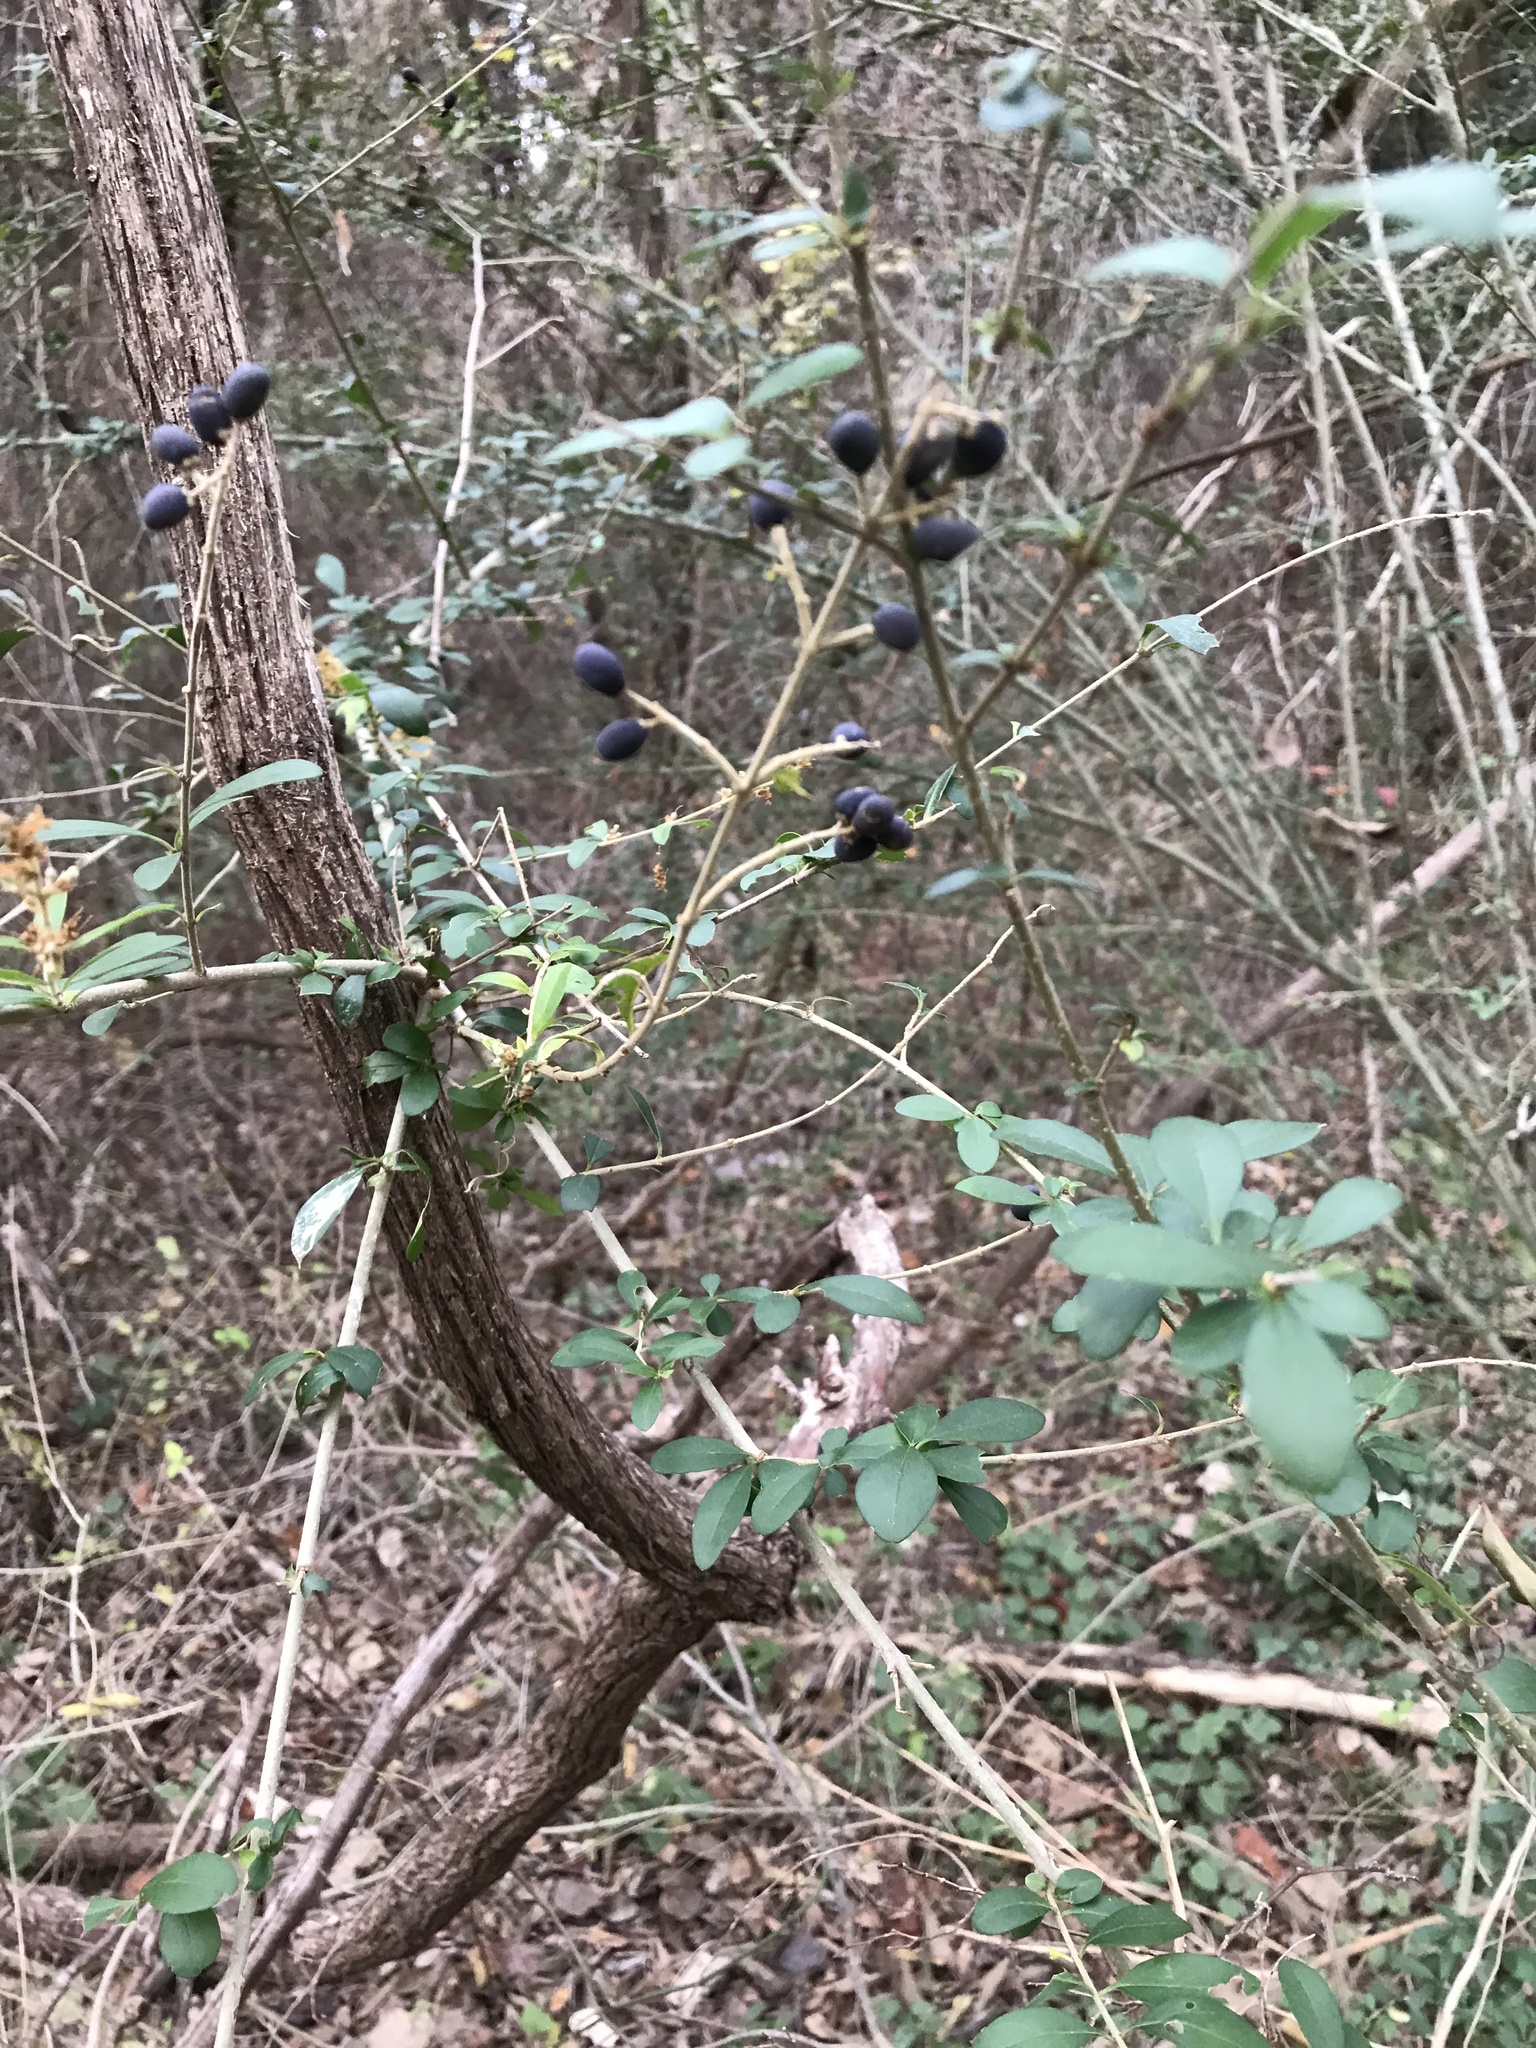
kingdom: Plantae
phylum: Tracheophyta
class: Magnoliopsida
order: Lamiales
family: Oleaceae
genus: Ligustrum
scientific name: Ligustrum quihoui
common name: Waxyleaf privet
